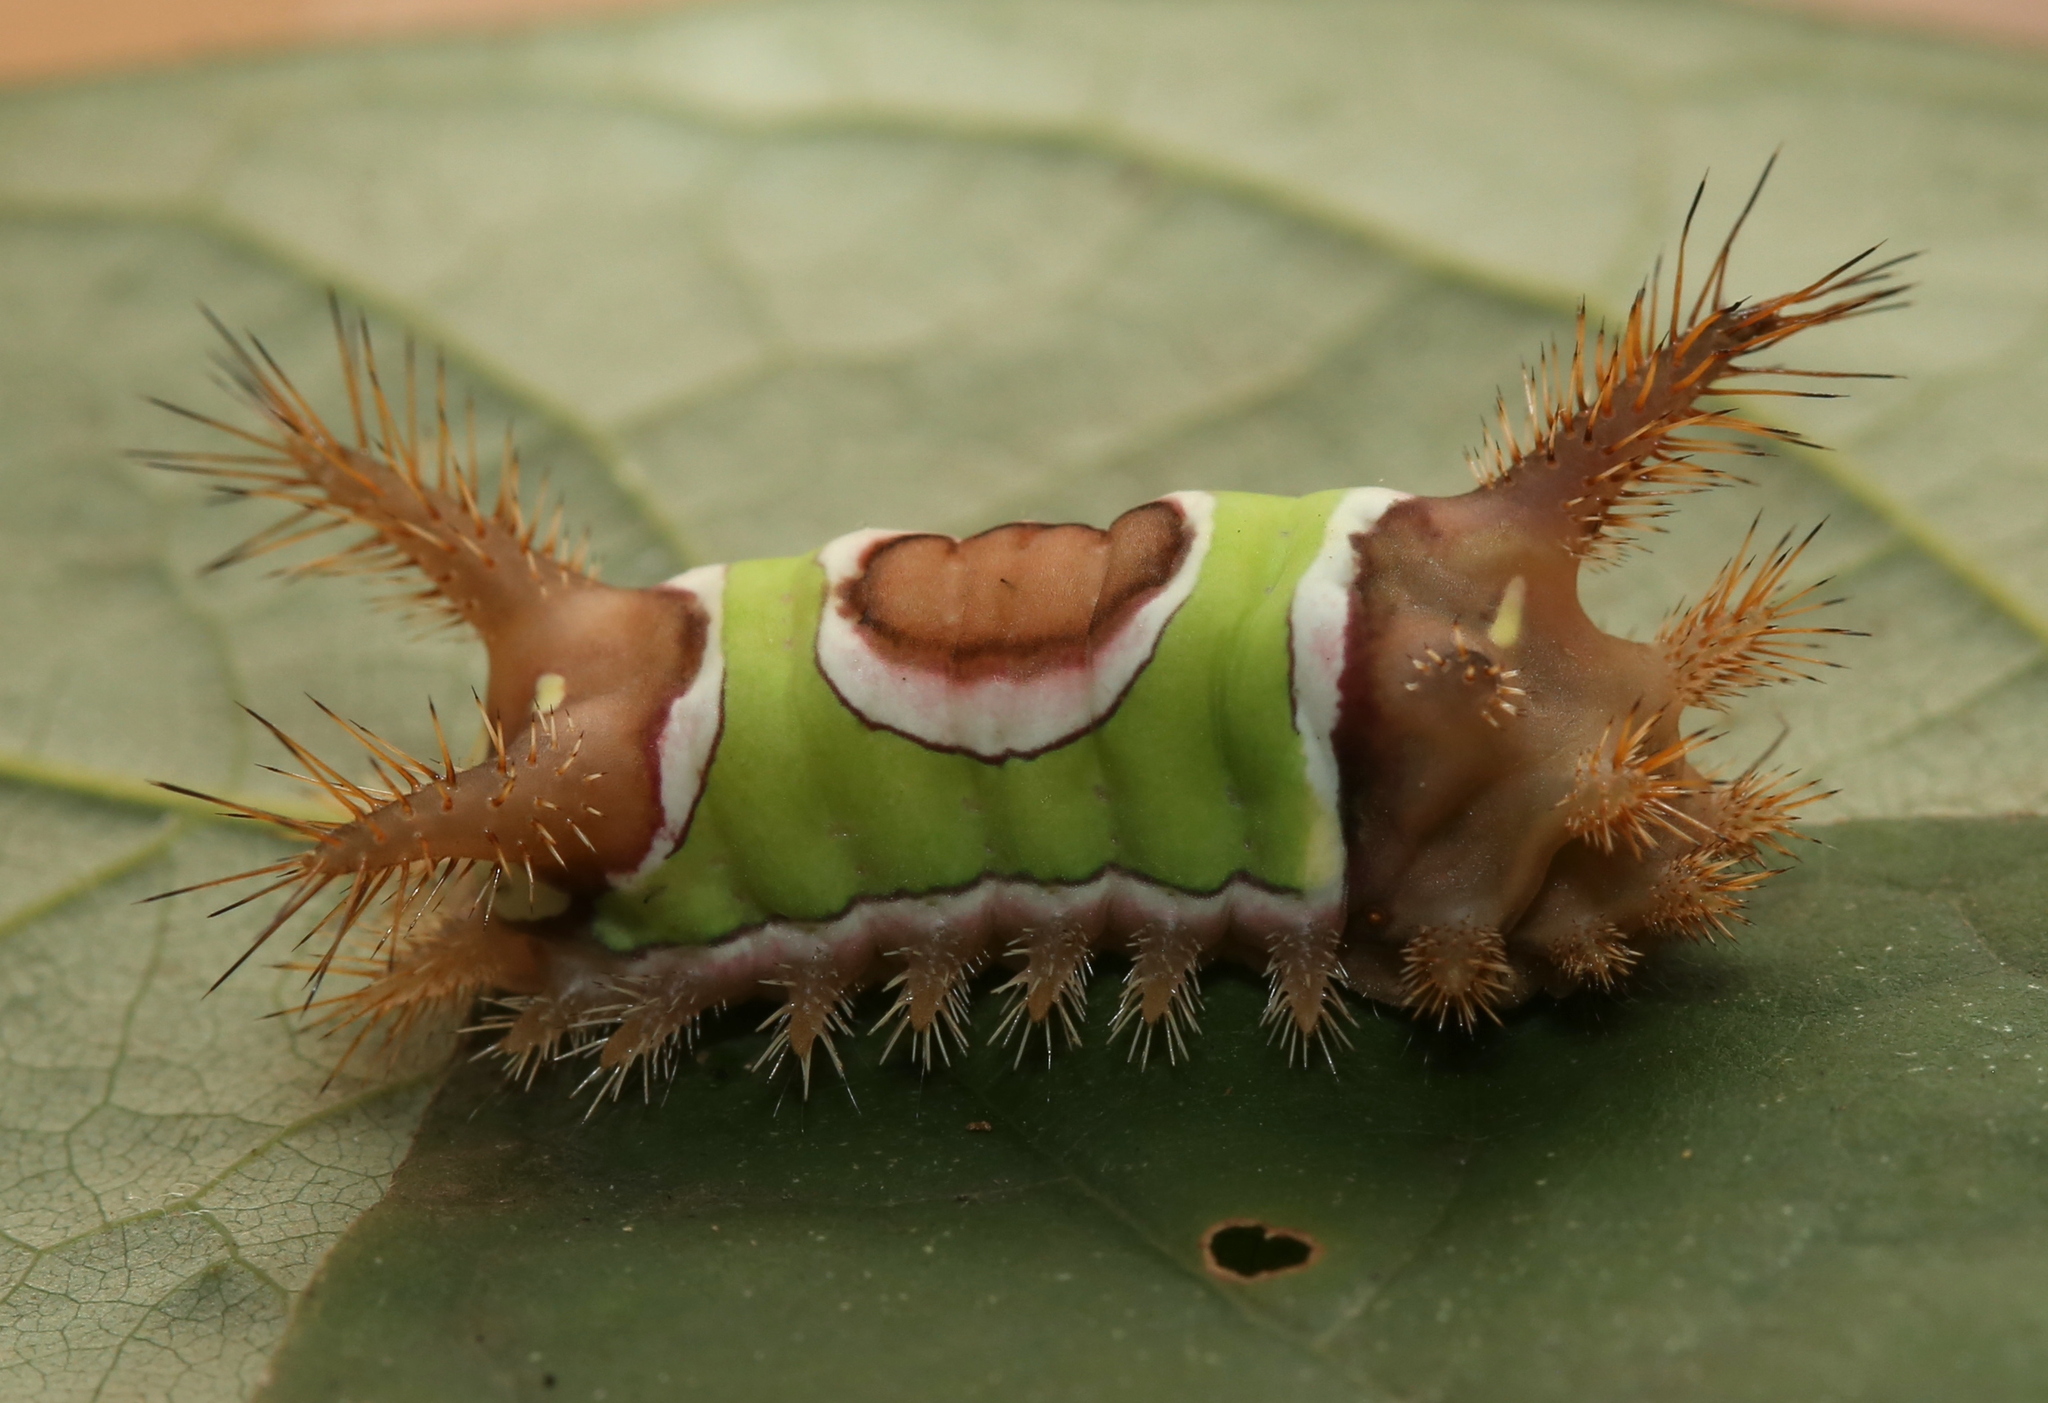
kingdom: Animalia
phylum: Arthropoda
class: Insecta
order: Lepidoptera
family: Limacodidae
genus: Acharia
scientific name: Acharia stimulea
